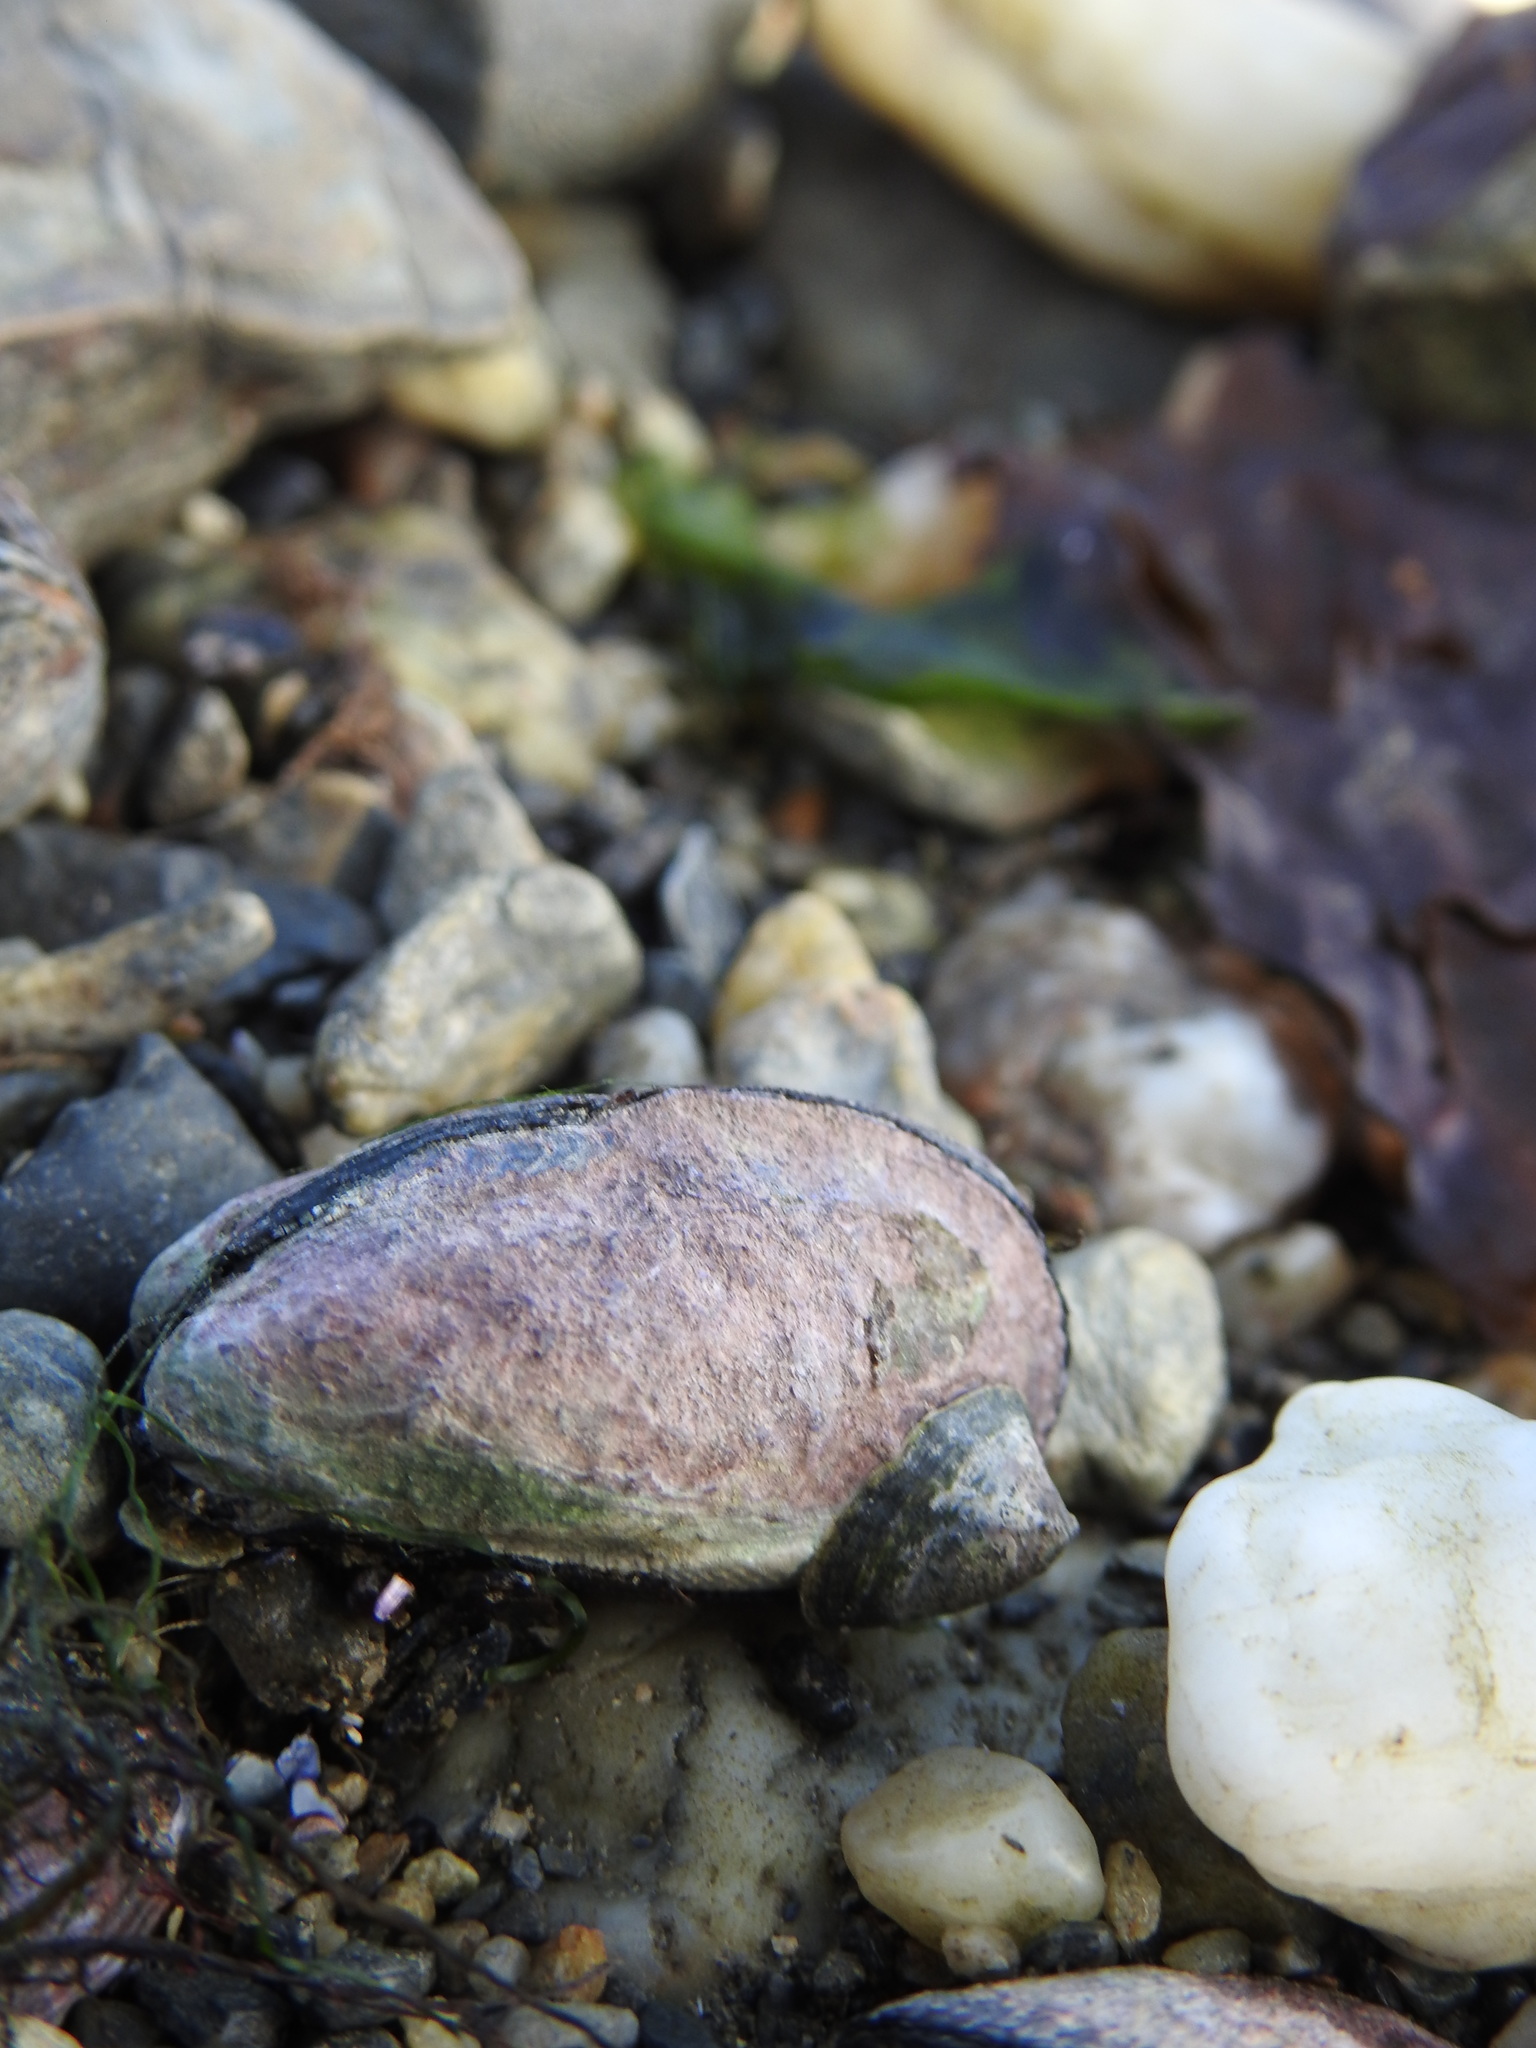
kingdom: Animalia
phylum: Mollusca
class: Bivalvia
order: Mytilida
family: Mytilidae
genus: Perumytilus
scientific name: Perumytilus purpuratus
